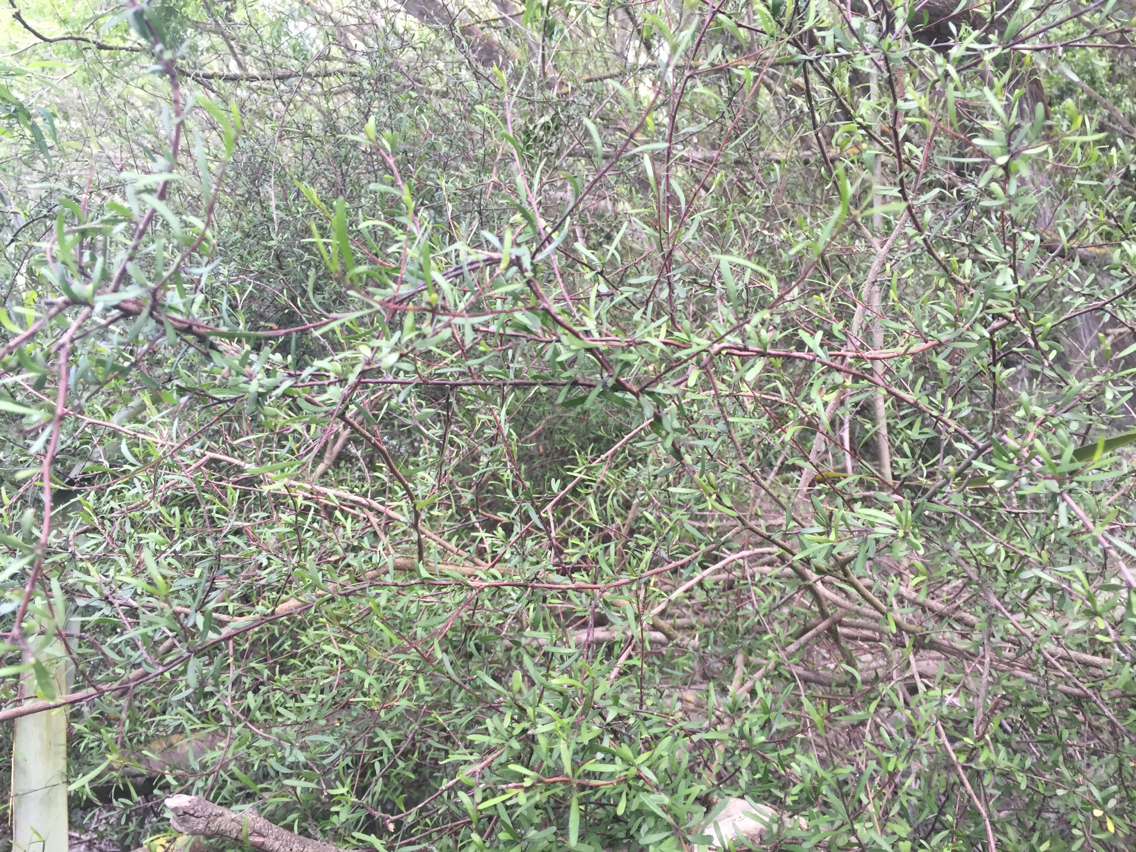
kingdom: Plantae
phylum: Tracheophyta
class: Magnoliopsida
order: Malvales
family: Malvaceae
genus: Plagianthus
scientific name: Plagianthus divaricatus
